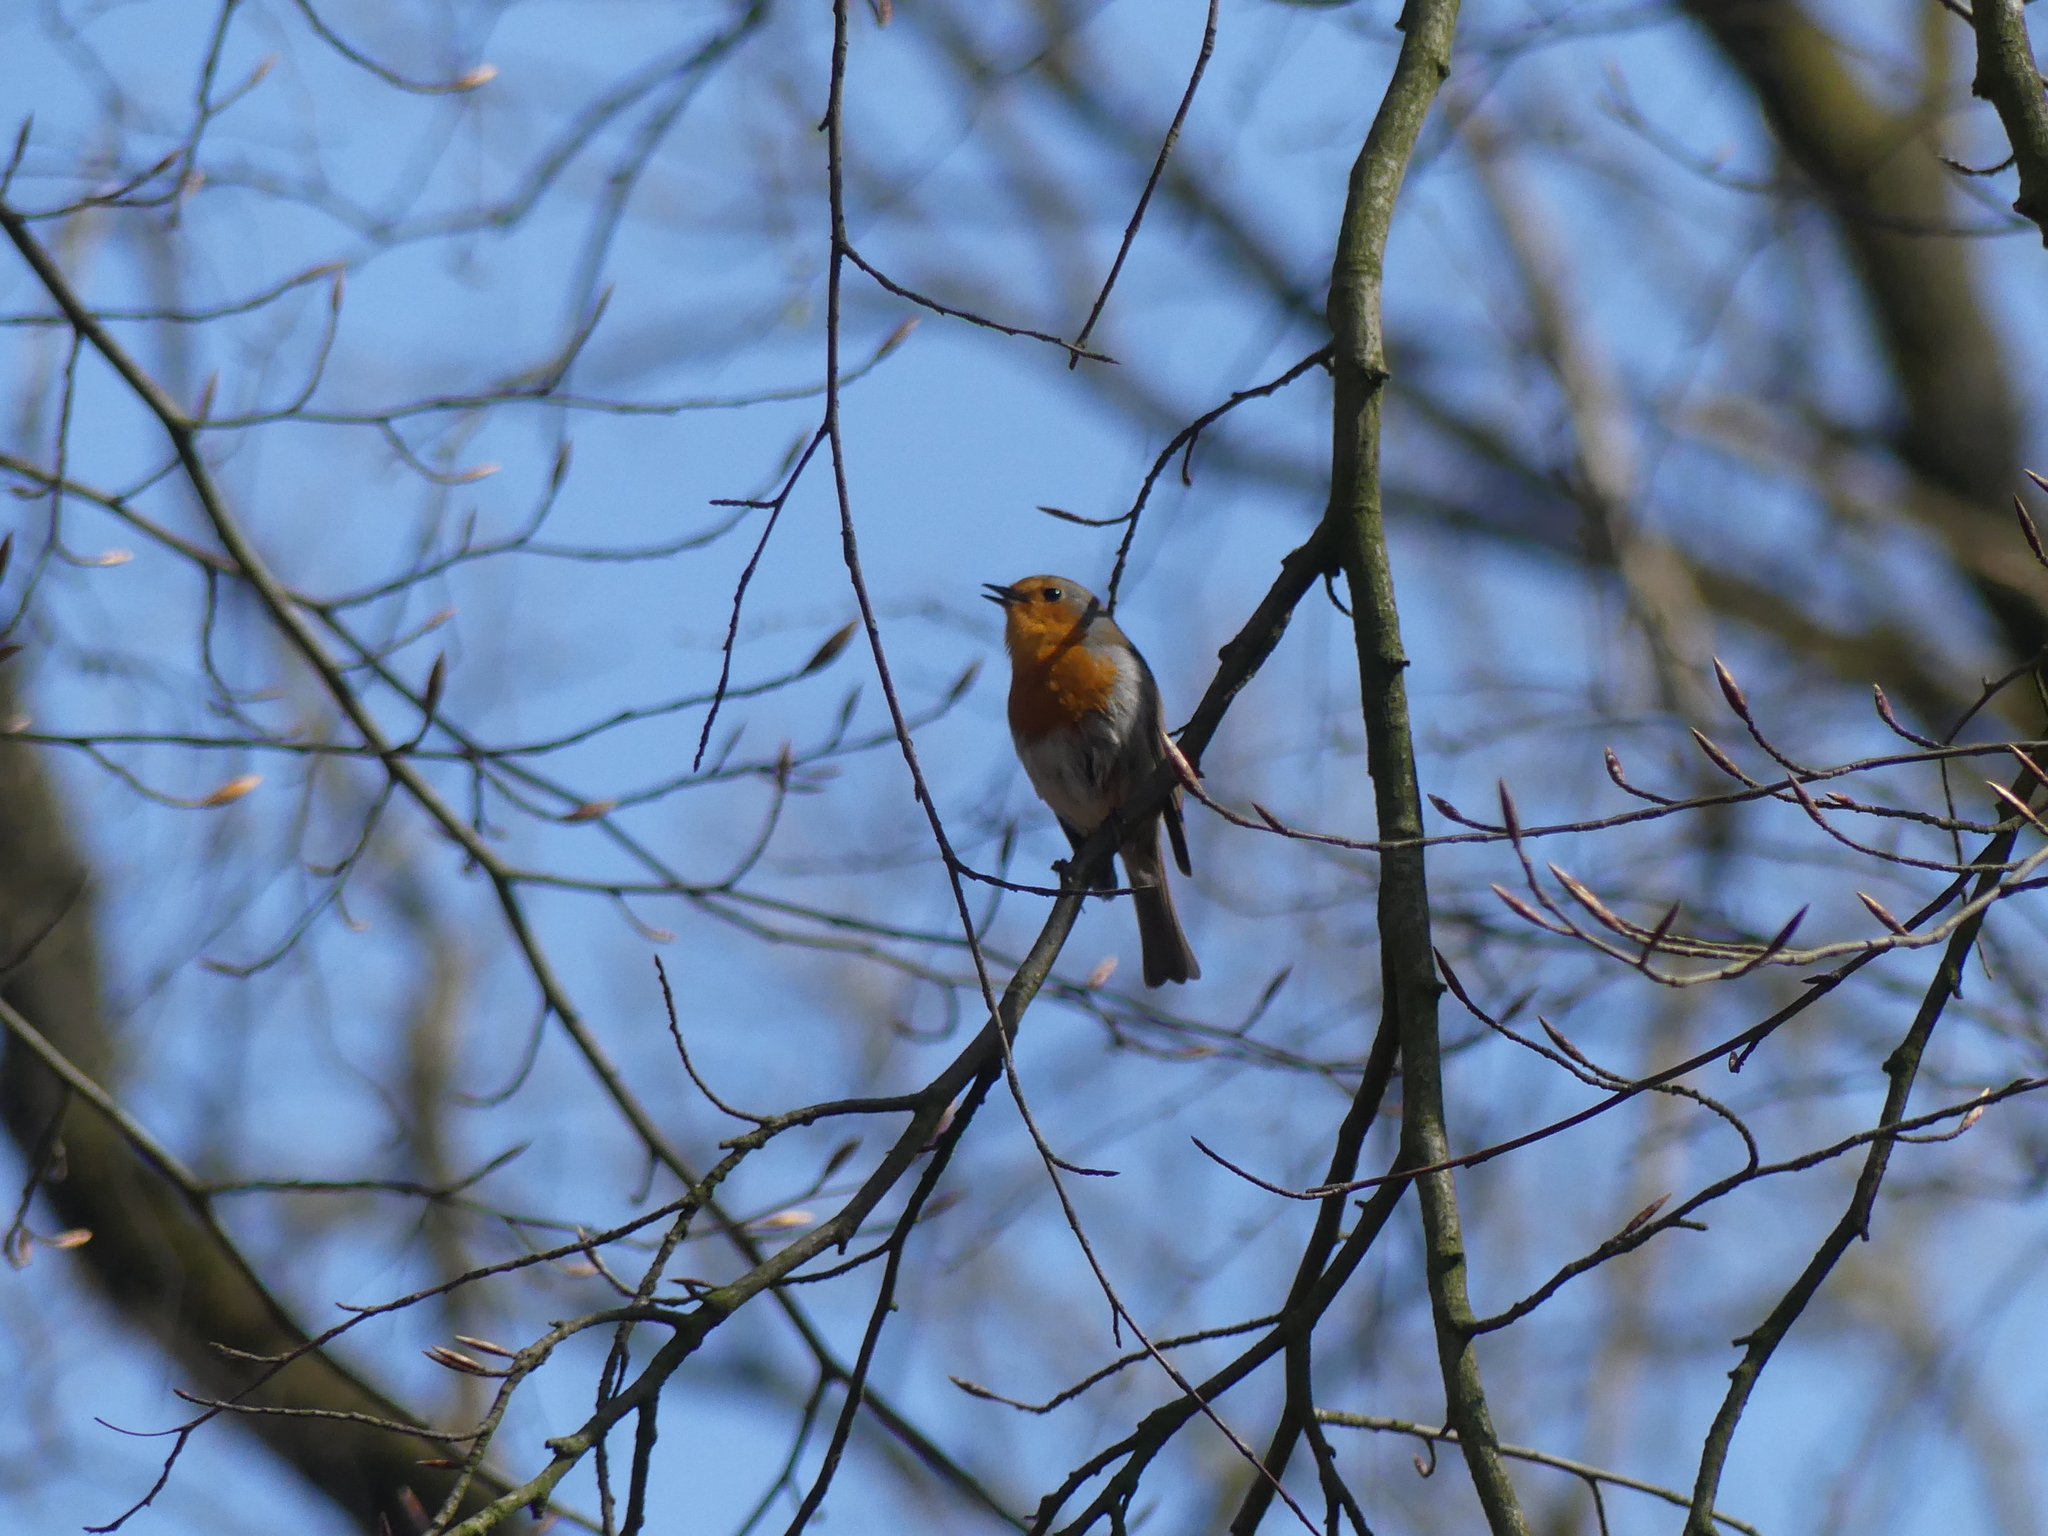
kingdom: Animalia
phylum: Chordata
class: Aves
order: Passeriformes
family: Muscicapidae
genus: Erithacus
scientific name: Erithacus rubecula
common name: European robin
